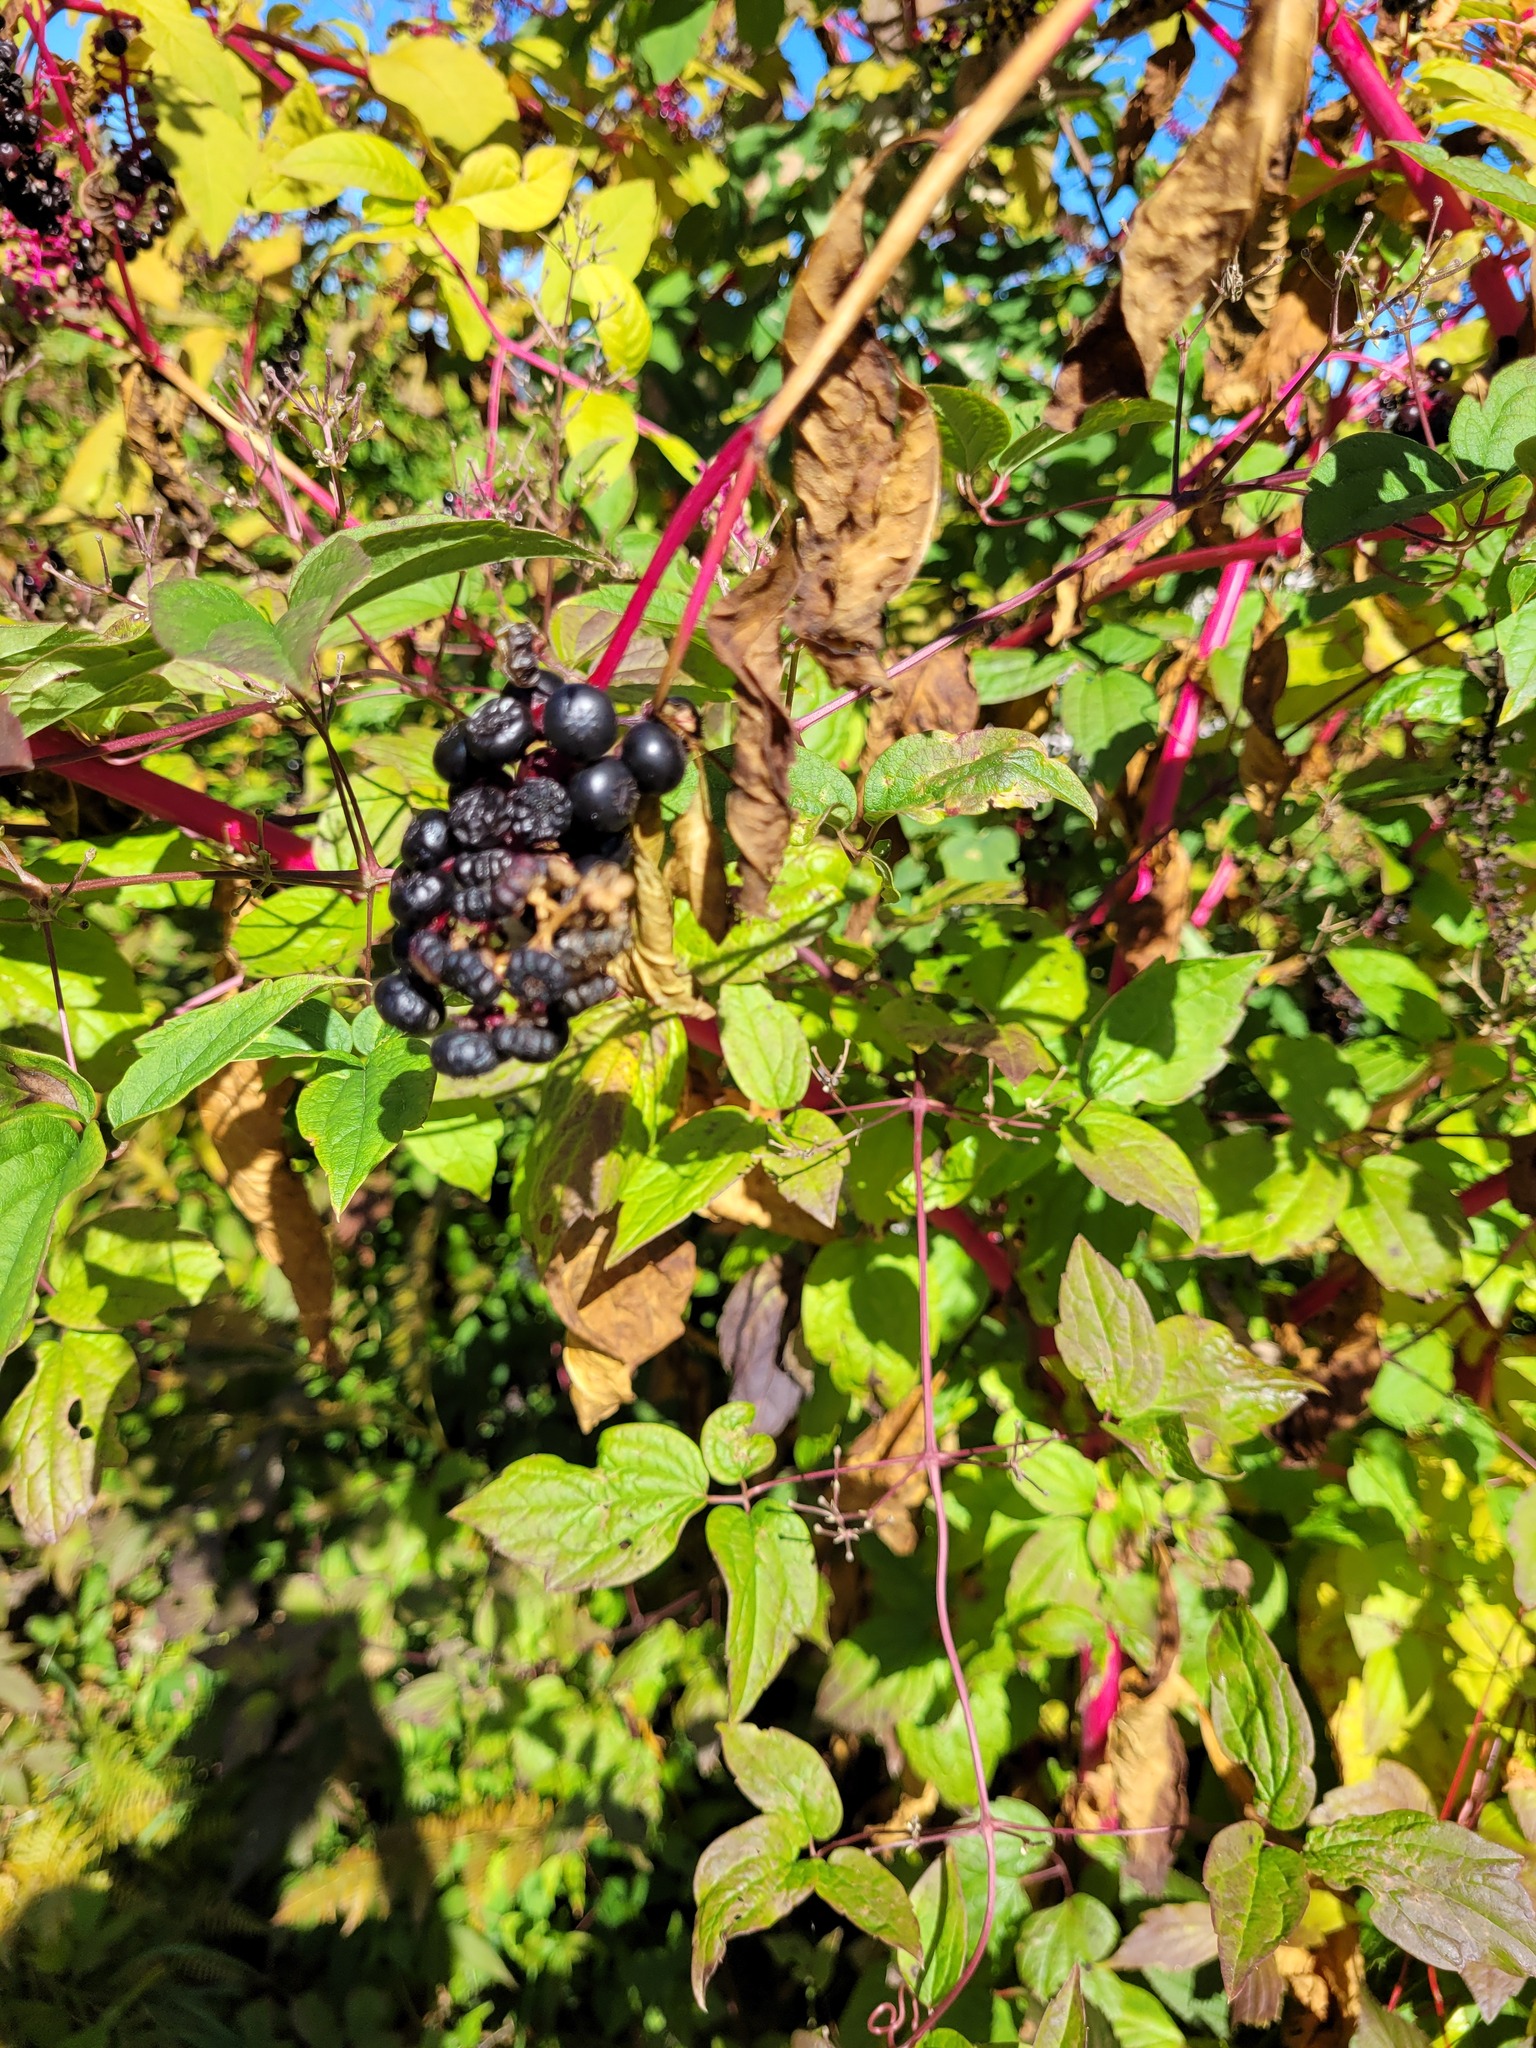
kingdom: Plantae
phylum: Tracheophyta
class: Magnoliopsida
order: Caryophyllales
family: Phytolaccaceae
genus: Phytolacca
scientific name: Phytolacca americana
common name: American pokeweed
